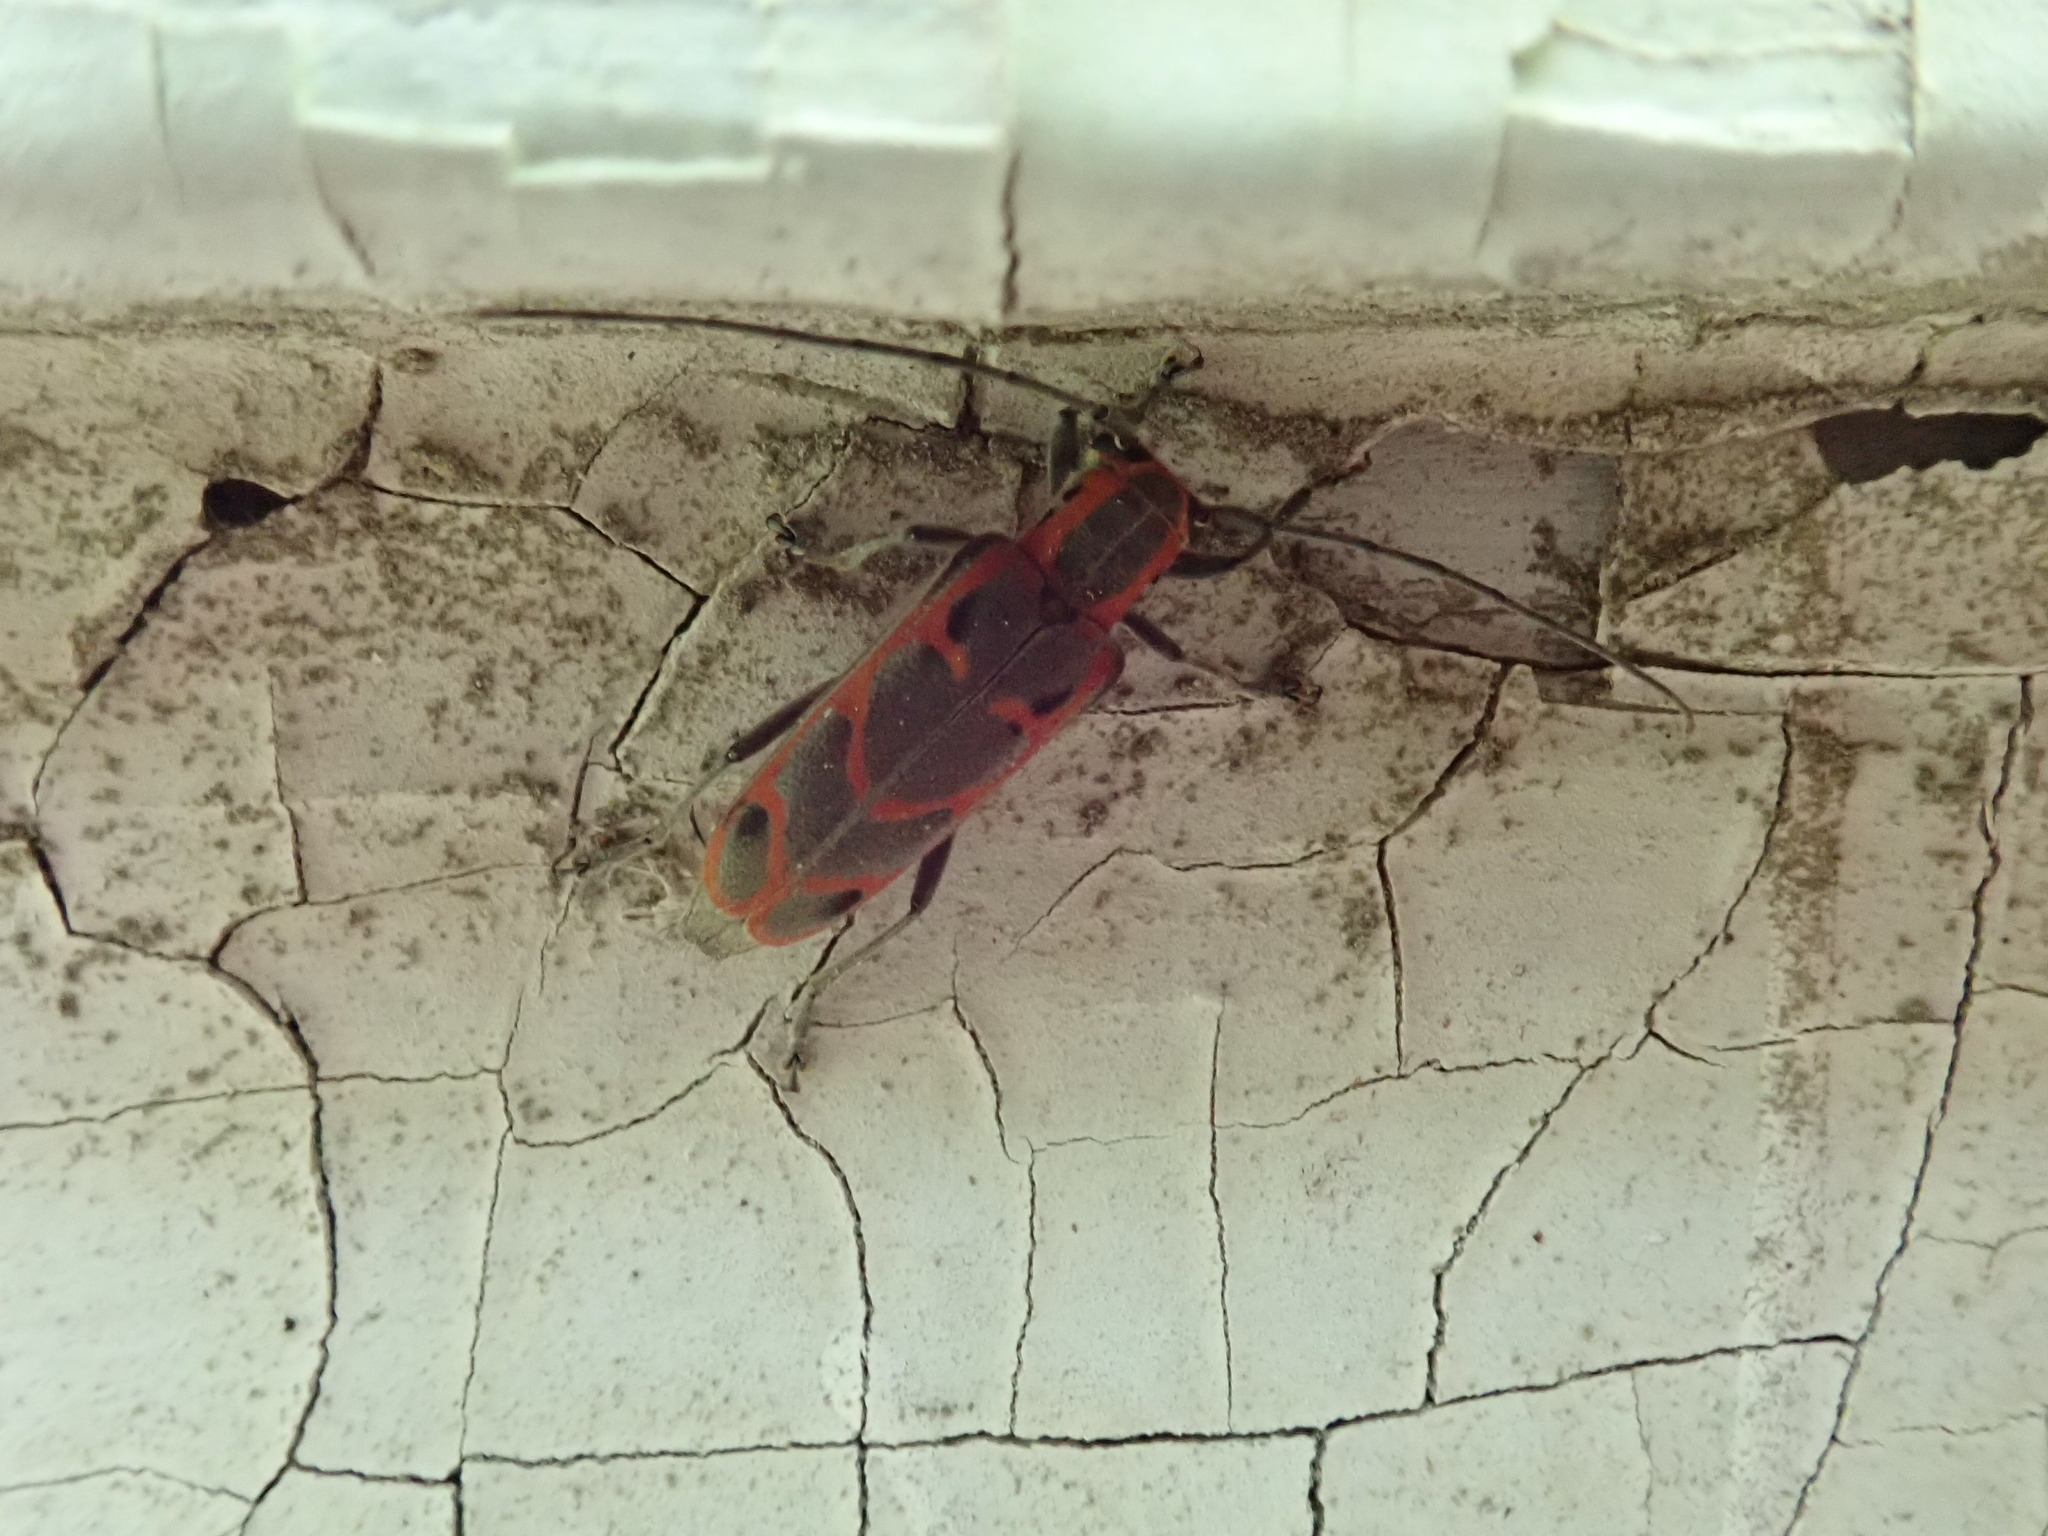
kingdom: Animalia
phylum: Arthropoda
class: Insecta
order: Coleoptera
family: Cerambycidae
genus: Saperda
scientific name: Saperda tridentata
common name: Elm borer
